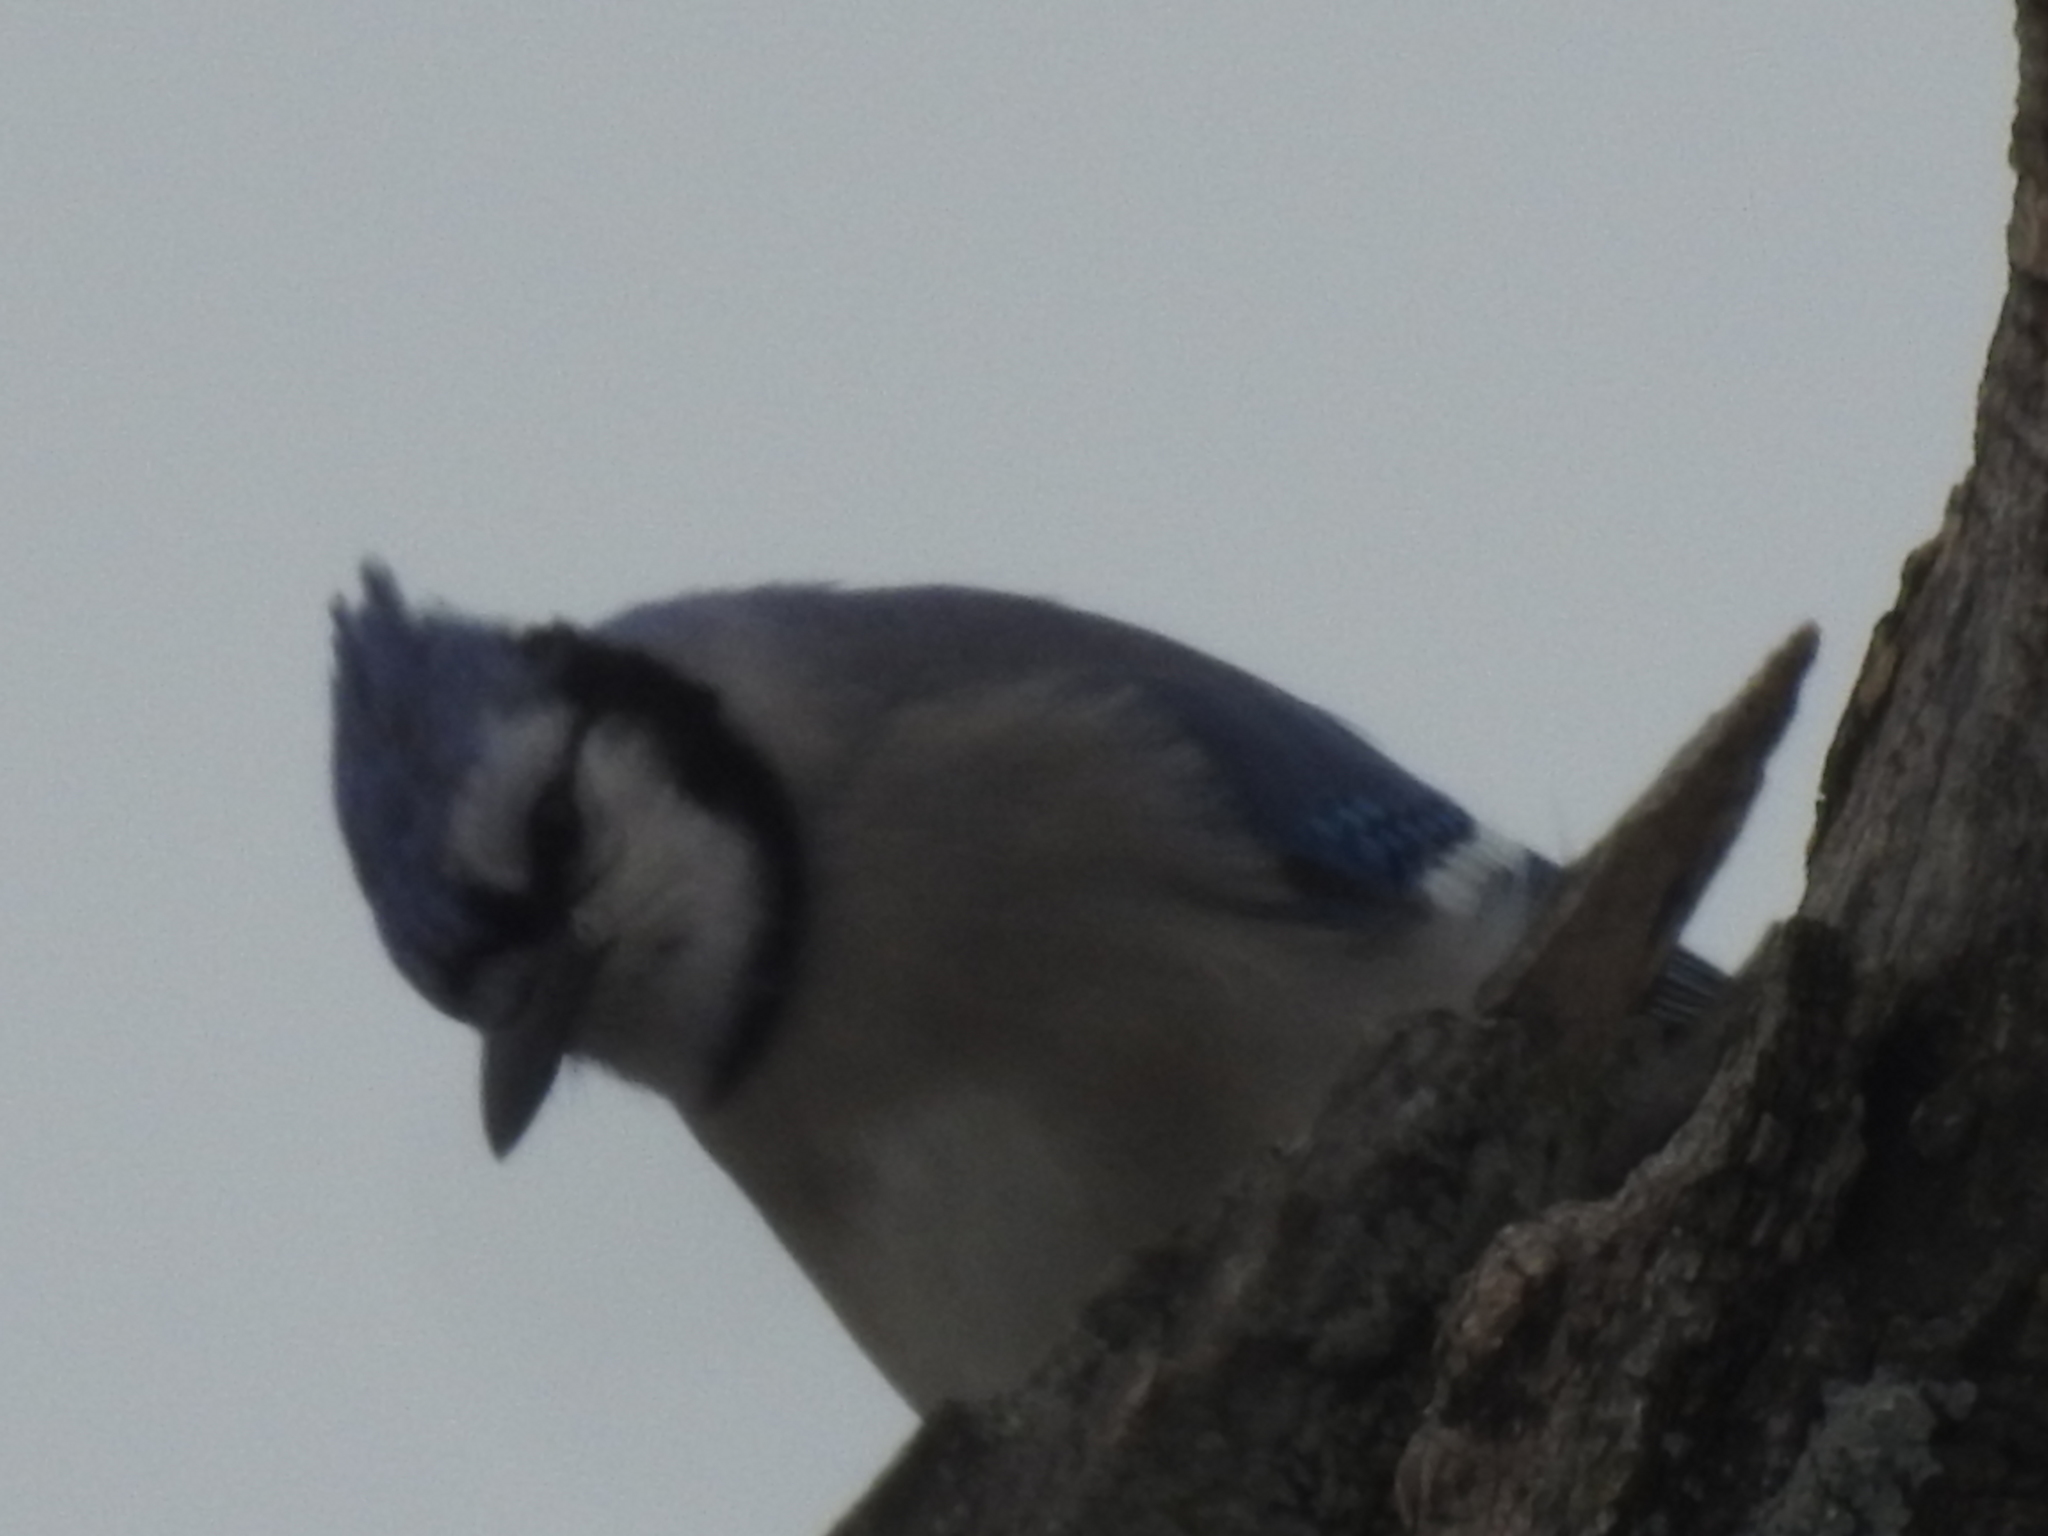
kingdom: Animalia
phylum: Chordata
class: Aves
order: Passeriformes
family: Corvidae
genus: Cyanocitta
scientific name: Cyanocitta cristata
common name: Blue jay
